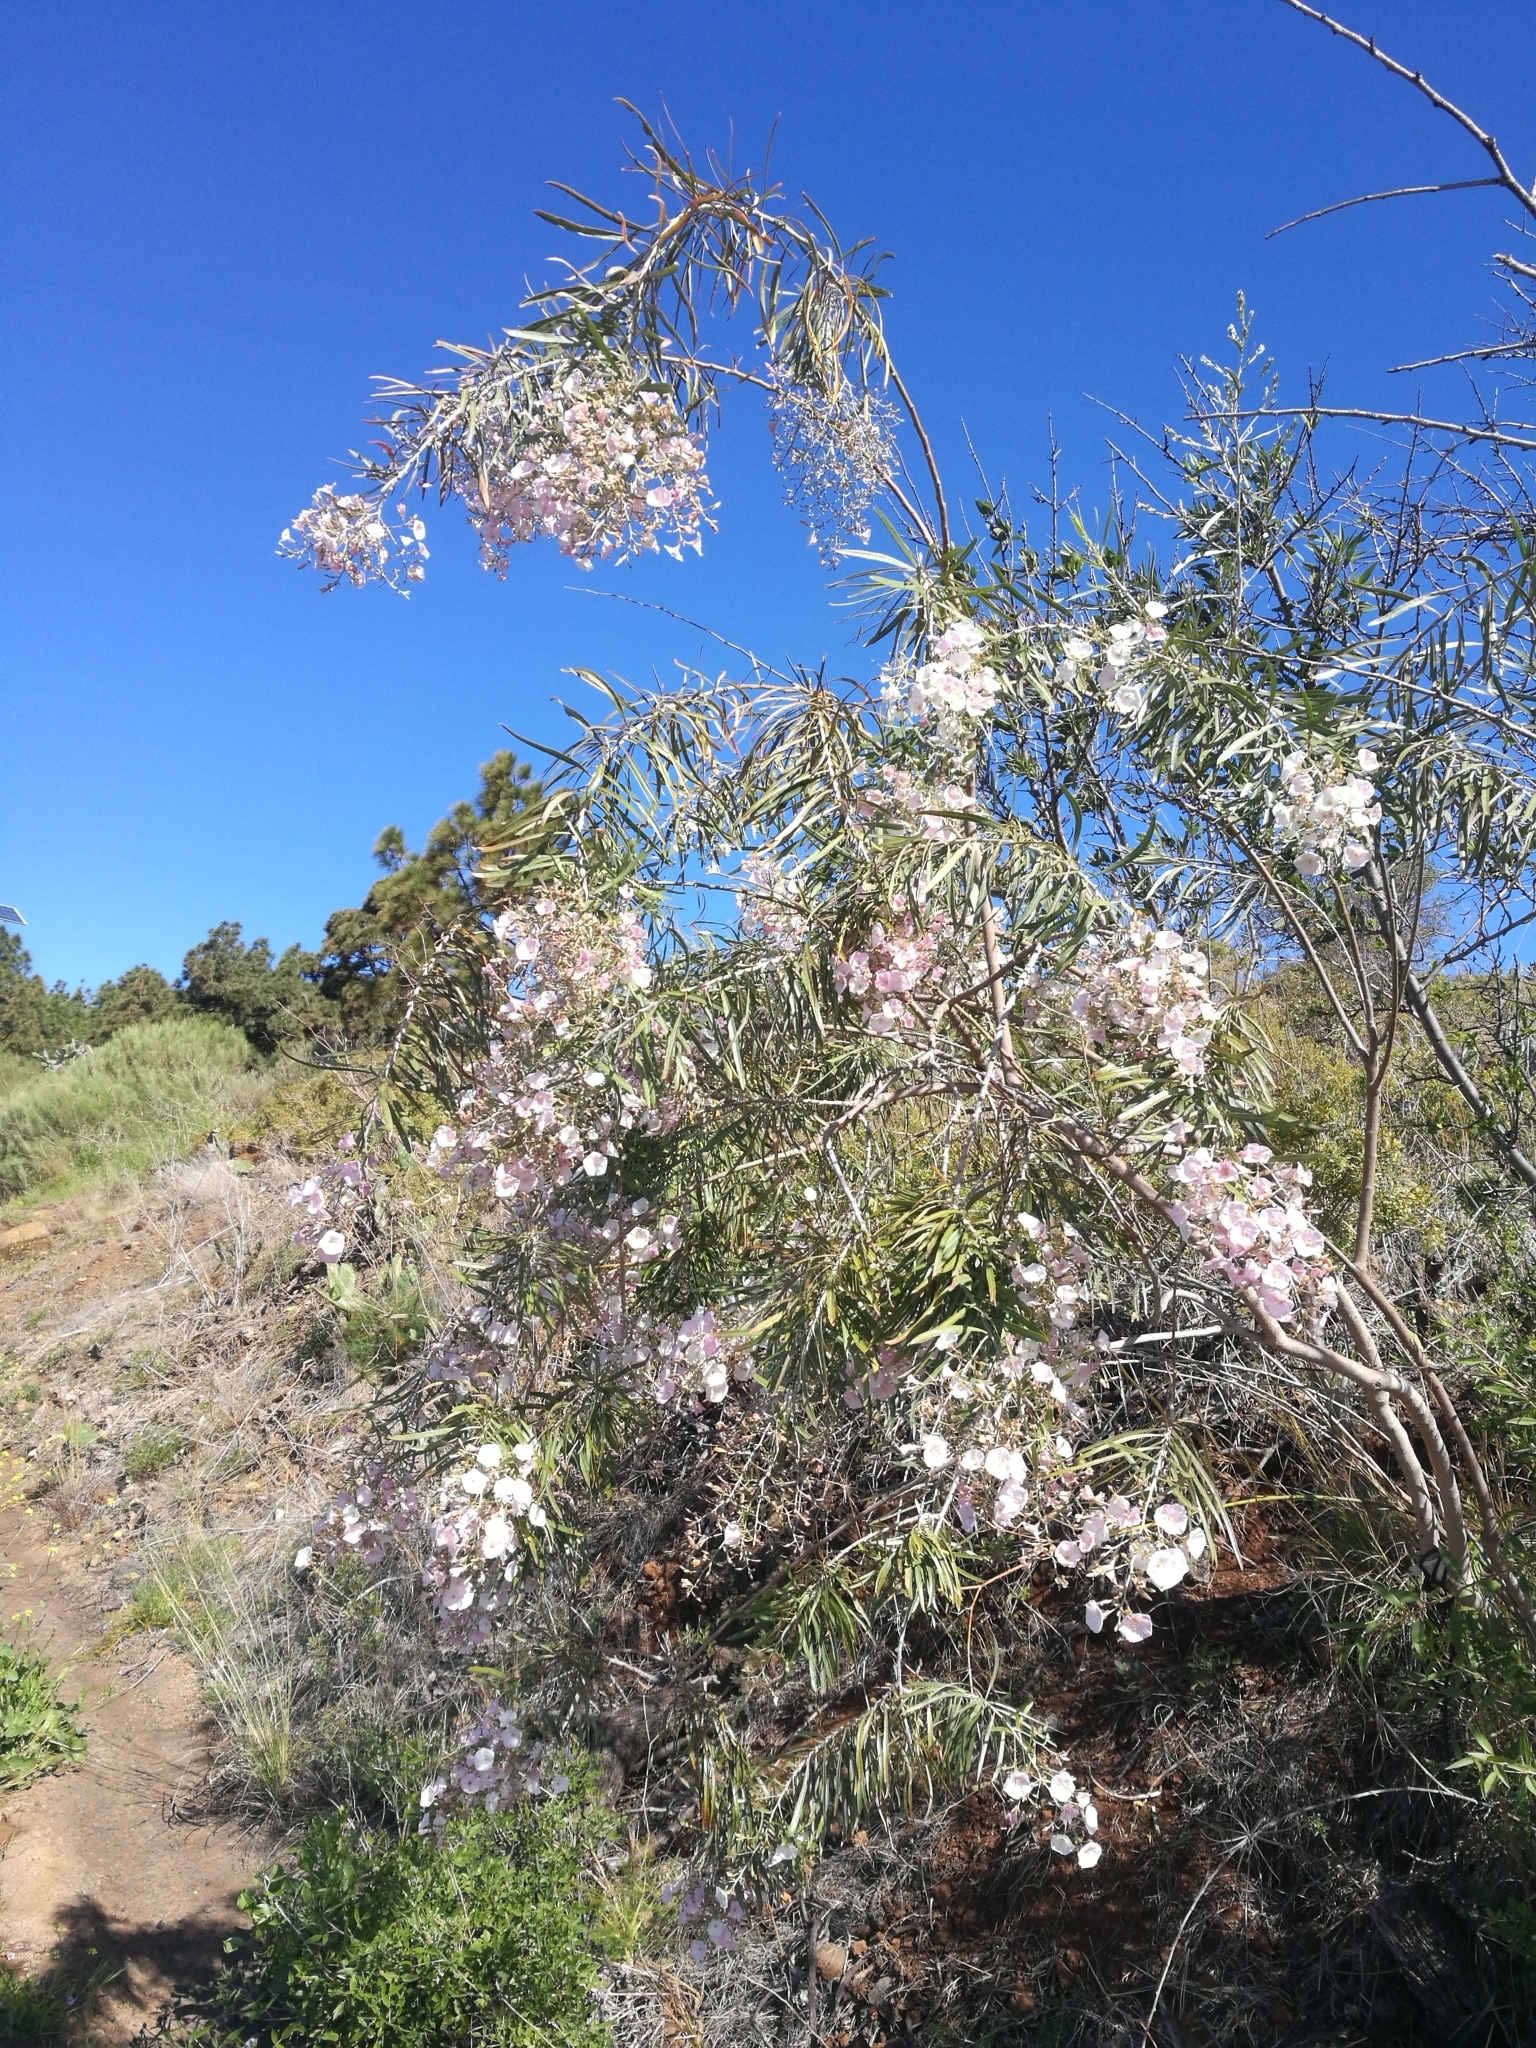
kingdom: Plantae
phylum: Tracheophyta
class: Magnoliopsida
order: Solanales
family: Convolvulaceae
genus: Convolvulus
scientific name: Convolvulus floridus
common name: Guadil
